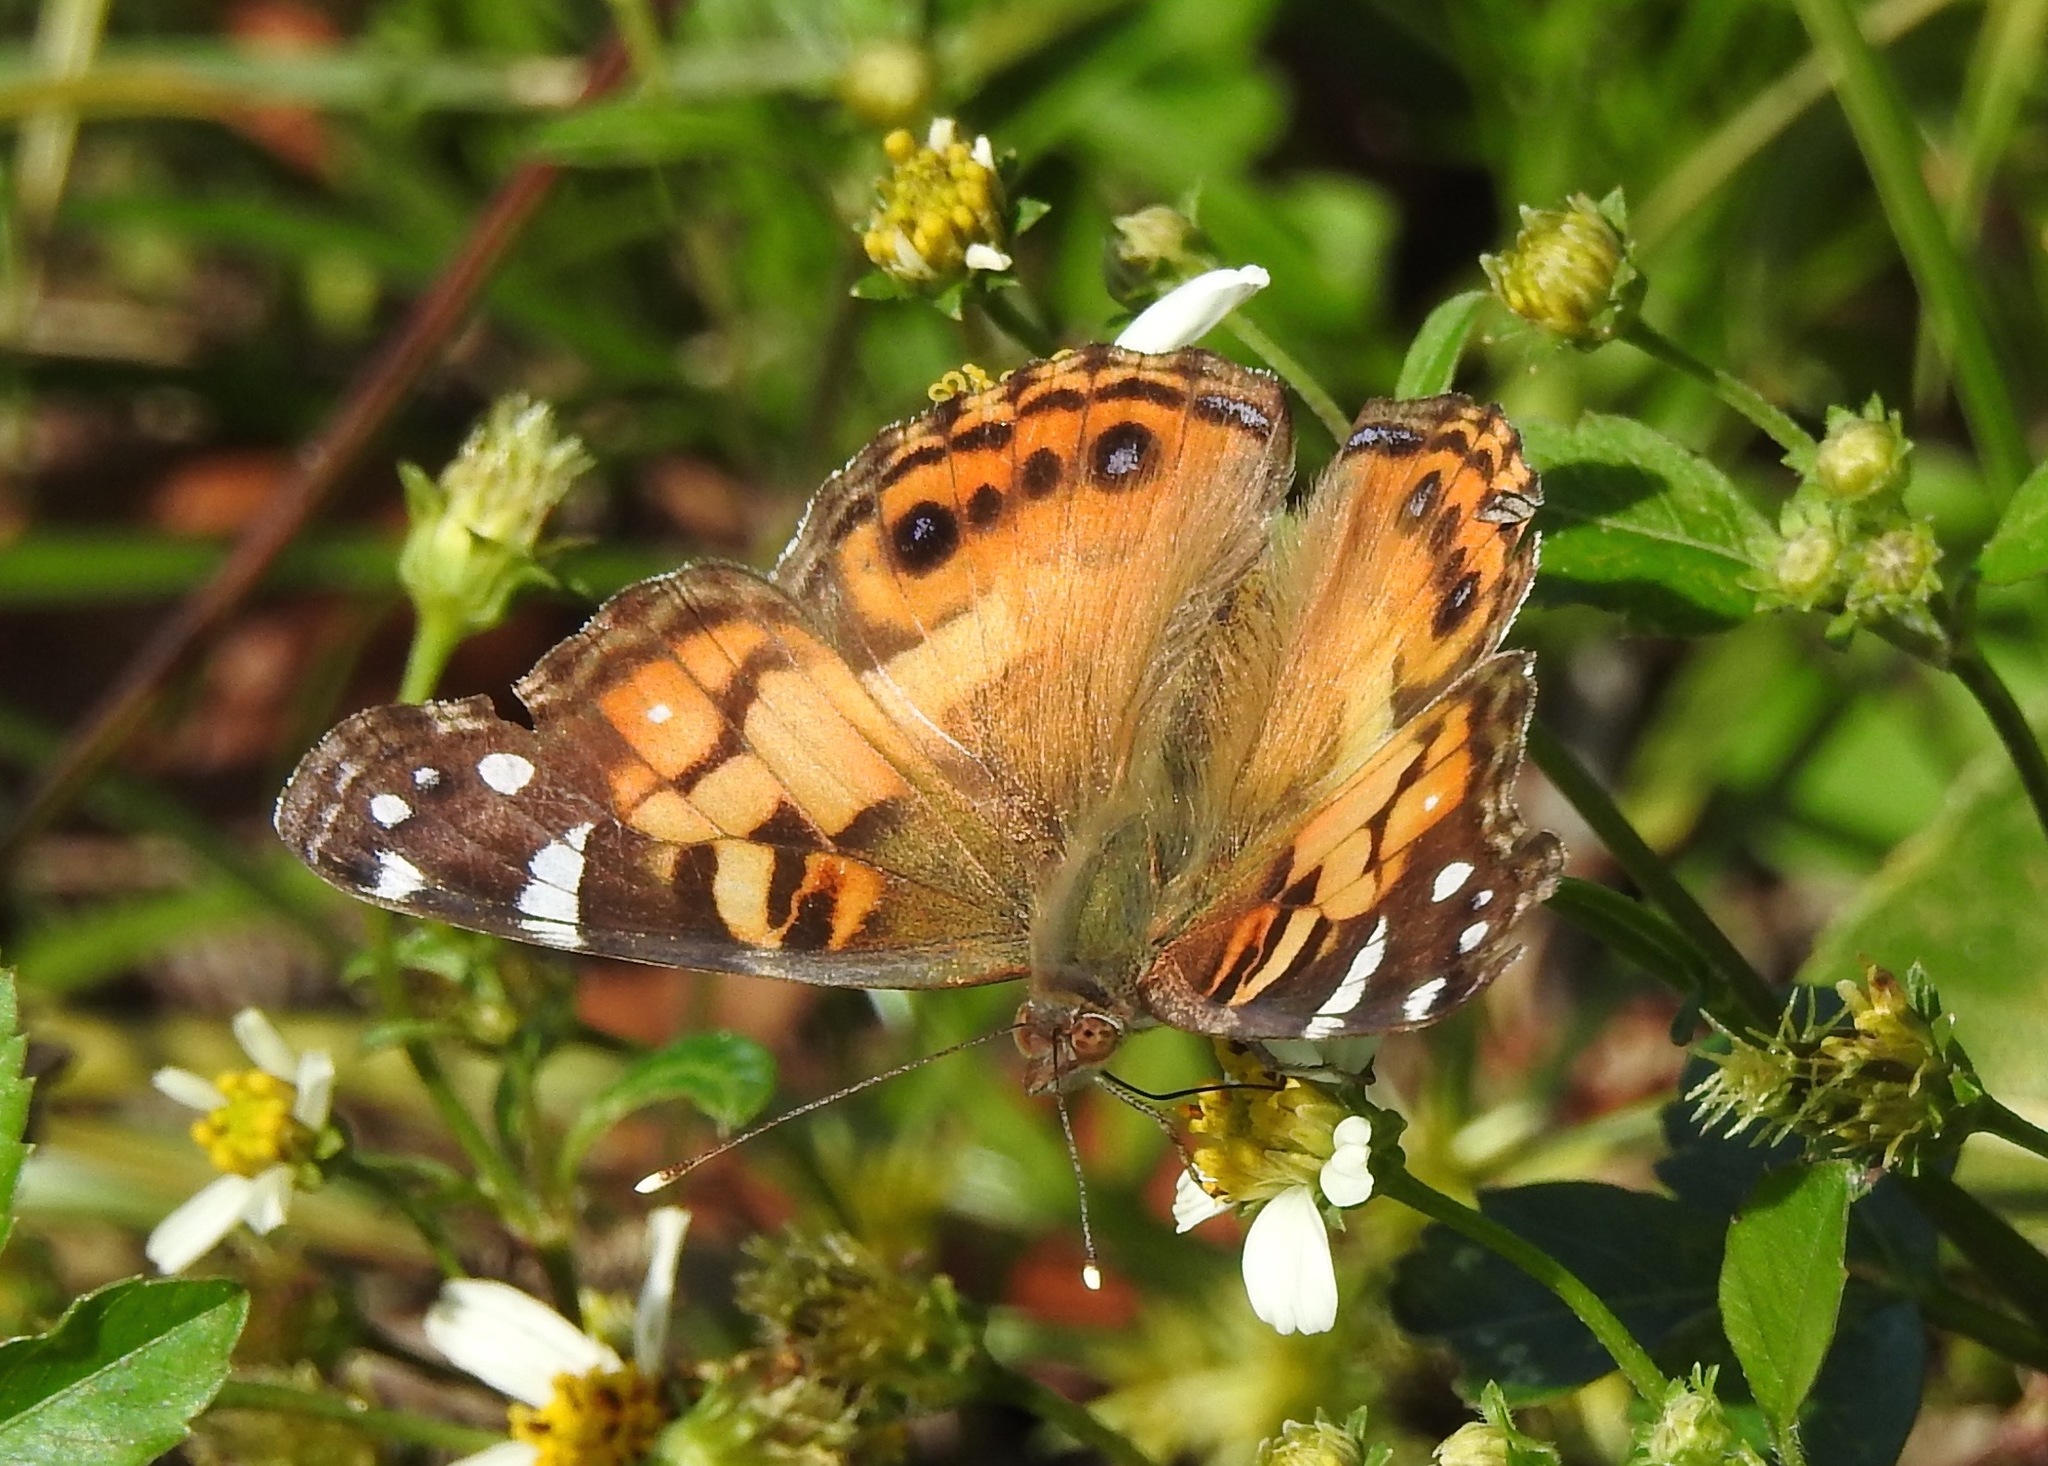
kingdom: Animalia
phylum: Arthropoda
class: Insecta
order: Lepidoptera
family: Nymphalidae
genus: Vanessa
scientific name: Vanessa virginiensis
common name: American lady
